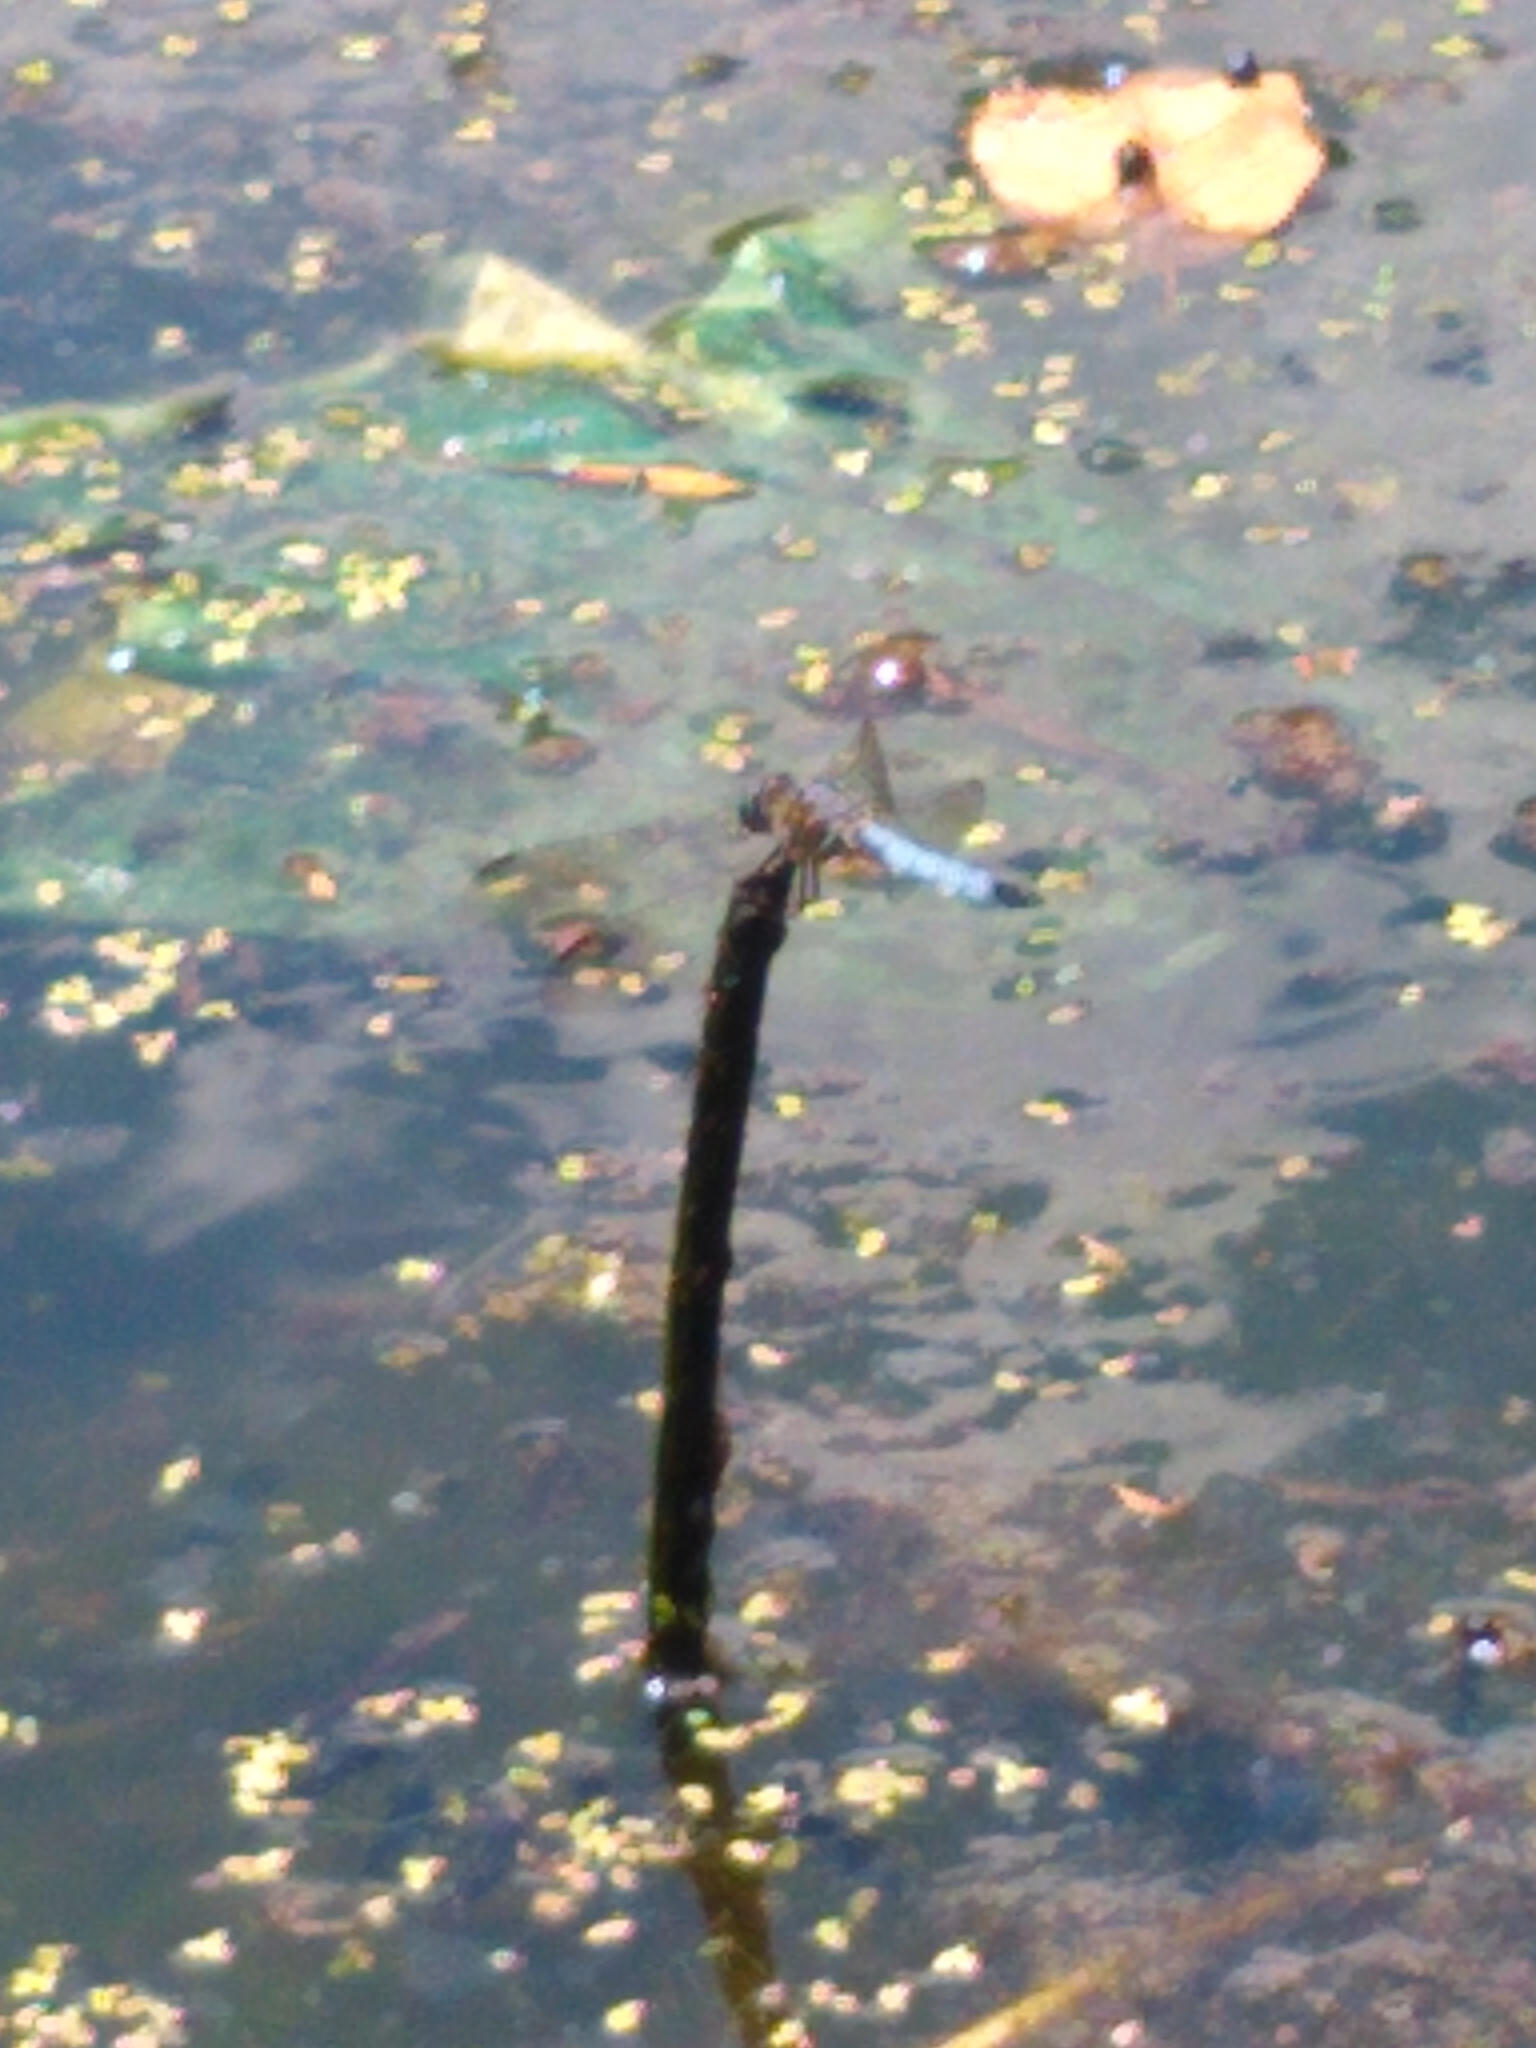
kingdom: Animalia
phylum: Arthropoda
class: Insecta
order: Odonata
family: Libellulidae
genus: Pachydiplax
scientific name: Pachydiplax longipennis
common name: Blue dasher
